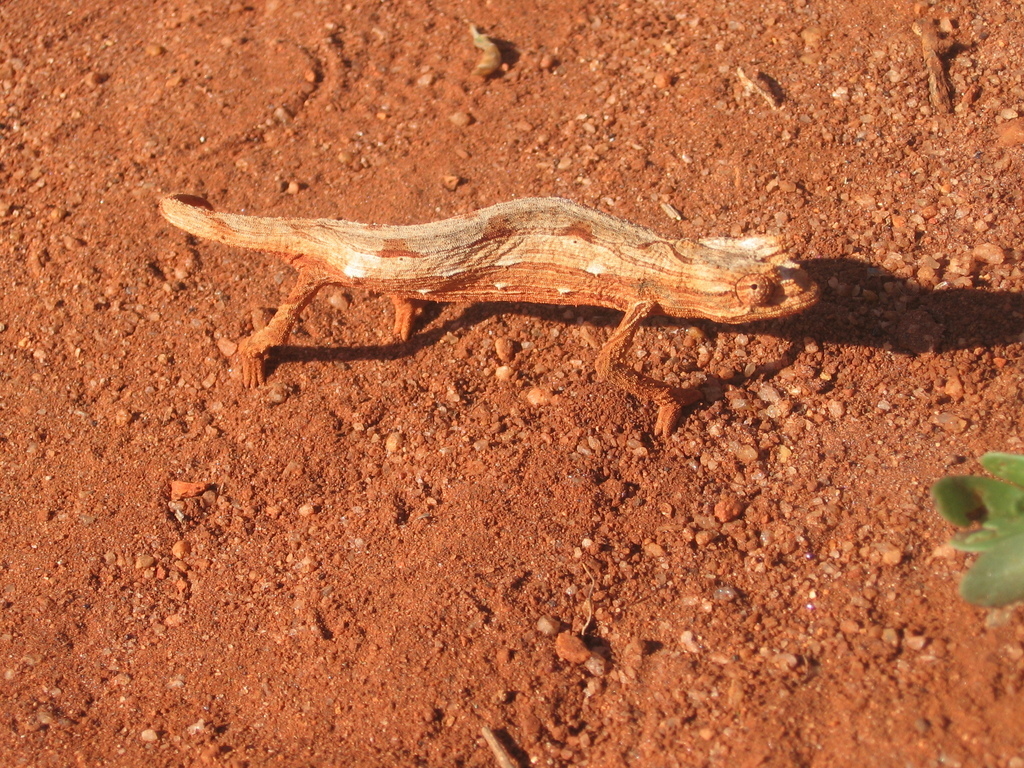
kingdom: Animalia
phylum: Chordata
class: Squamata
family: Chamaeleonidae
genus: Rieppeleon
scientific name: Rieppeleon kerstenii
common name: Kenya leaf chameleon
